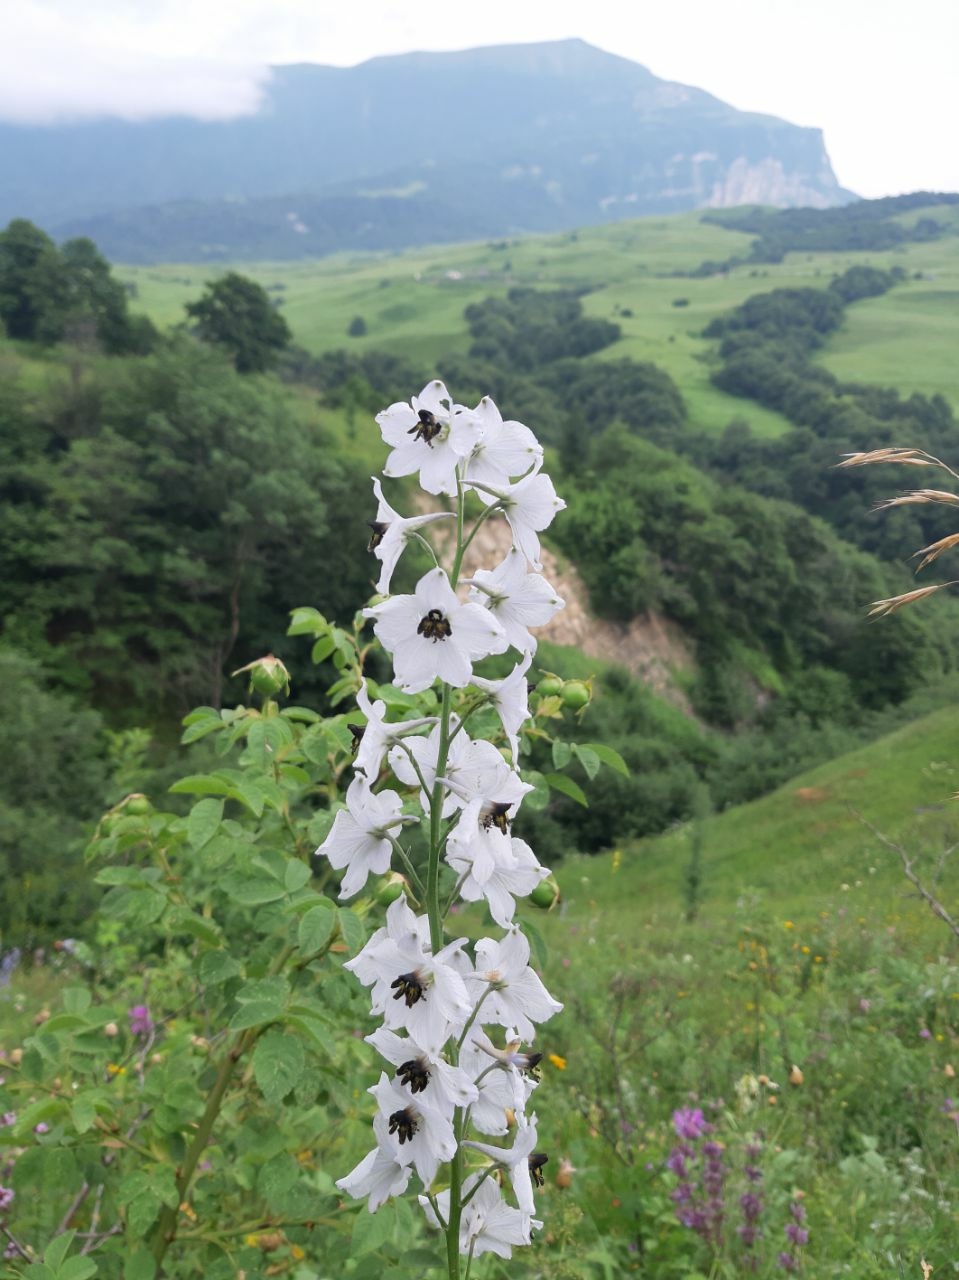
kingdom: Plantae
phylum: Tracheophyta
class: Magnoliopsida
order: Ranunculales
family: Ranunculaceae
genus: Delphinium
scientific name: Delphinium crispulum
